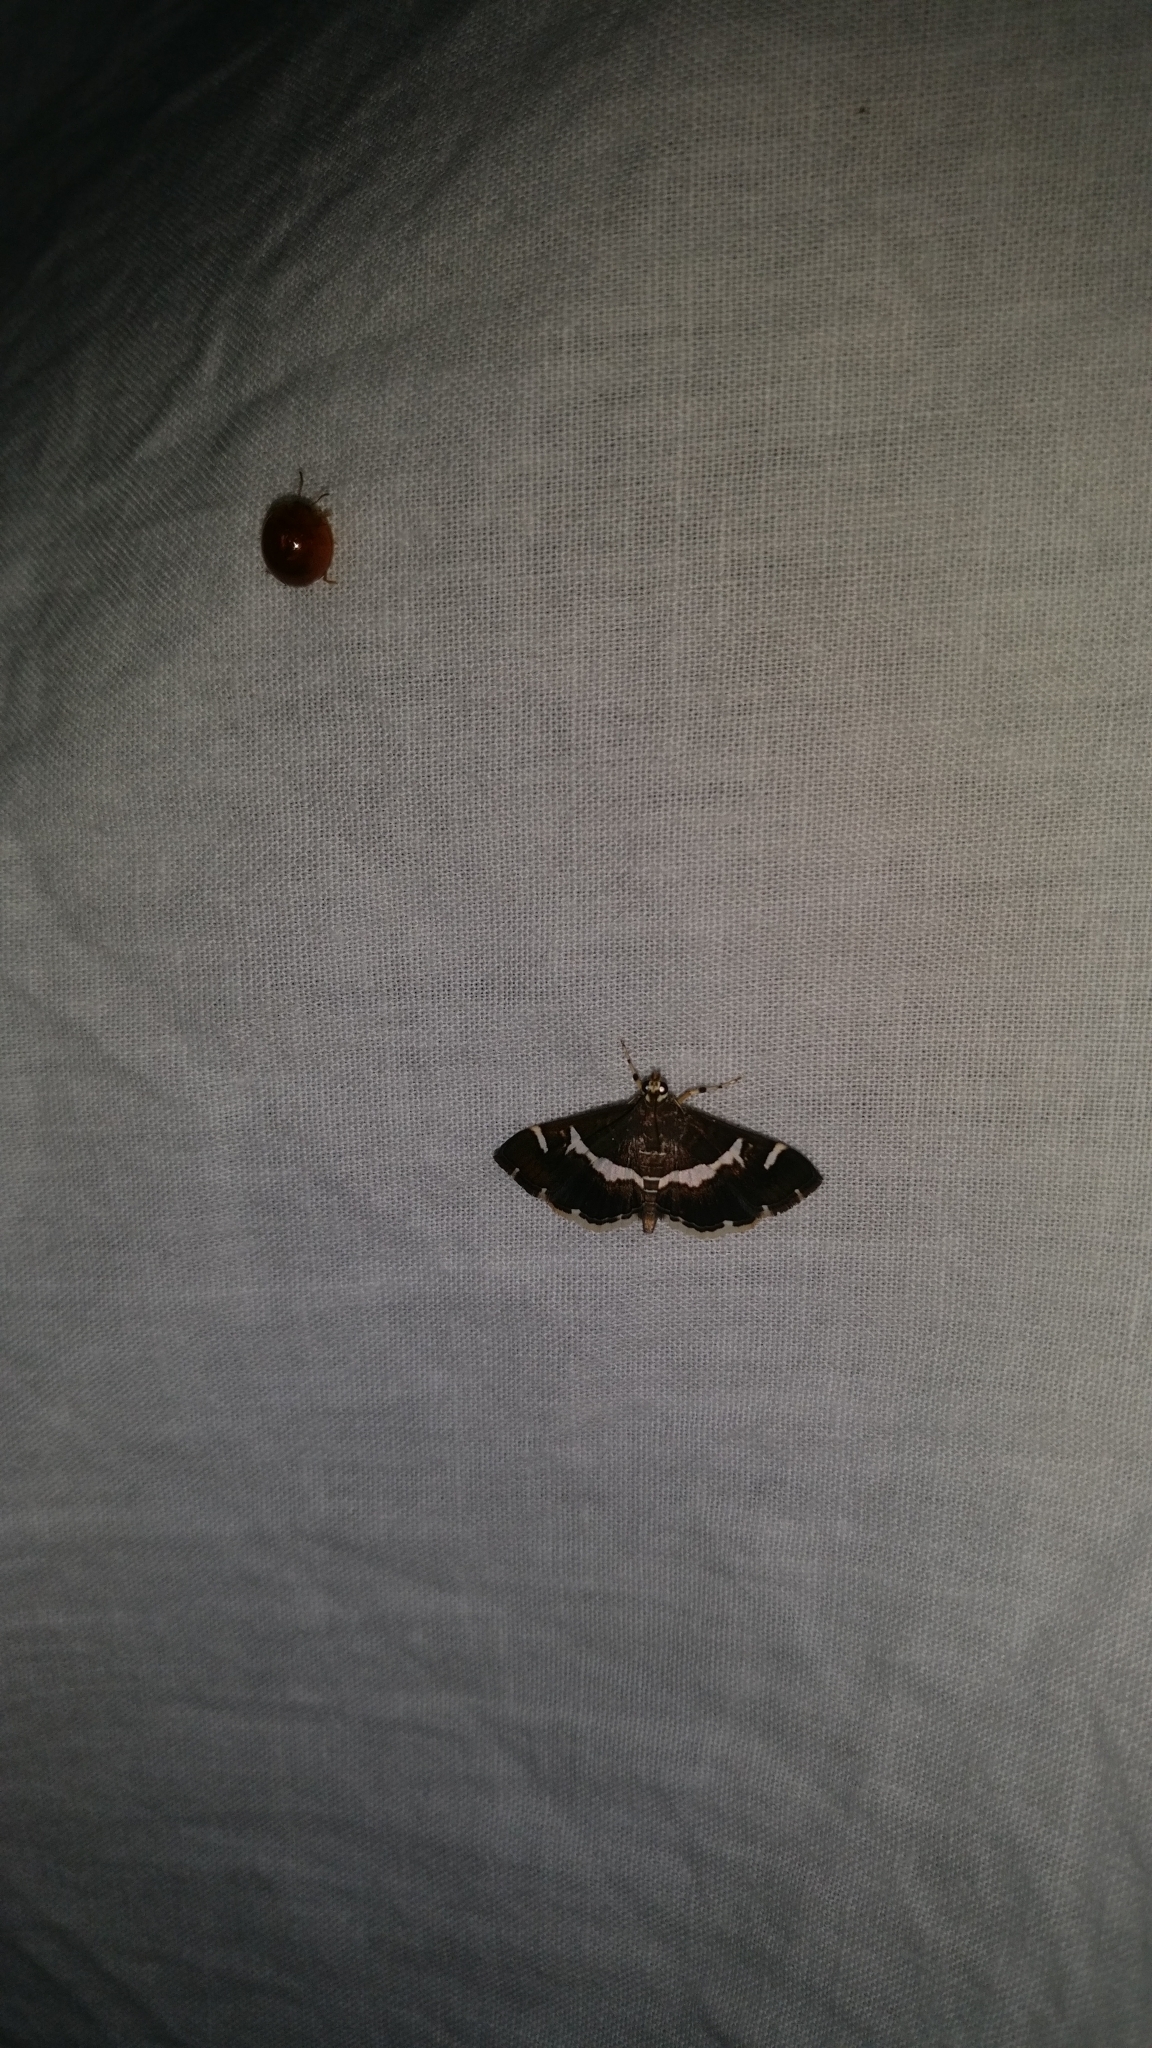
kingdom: Animalia
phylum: Arthropoda
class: Insecta
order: Lepidoptera
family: Crambidae
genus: Spoladea
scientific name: Spoladea recurvalis
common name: Beet webworm moth
